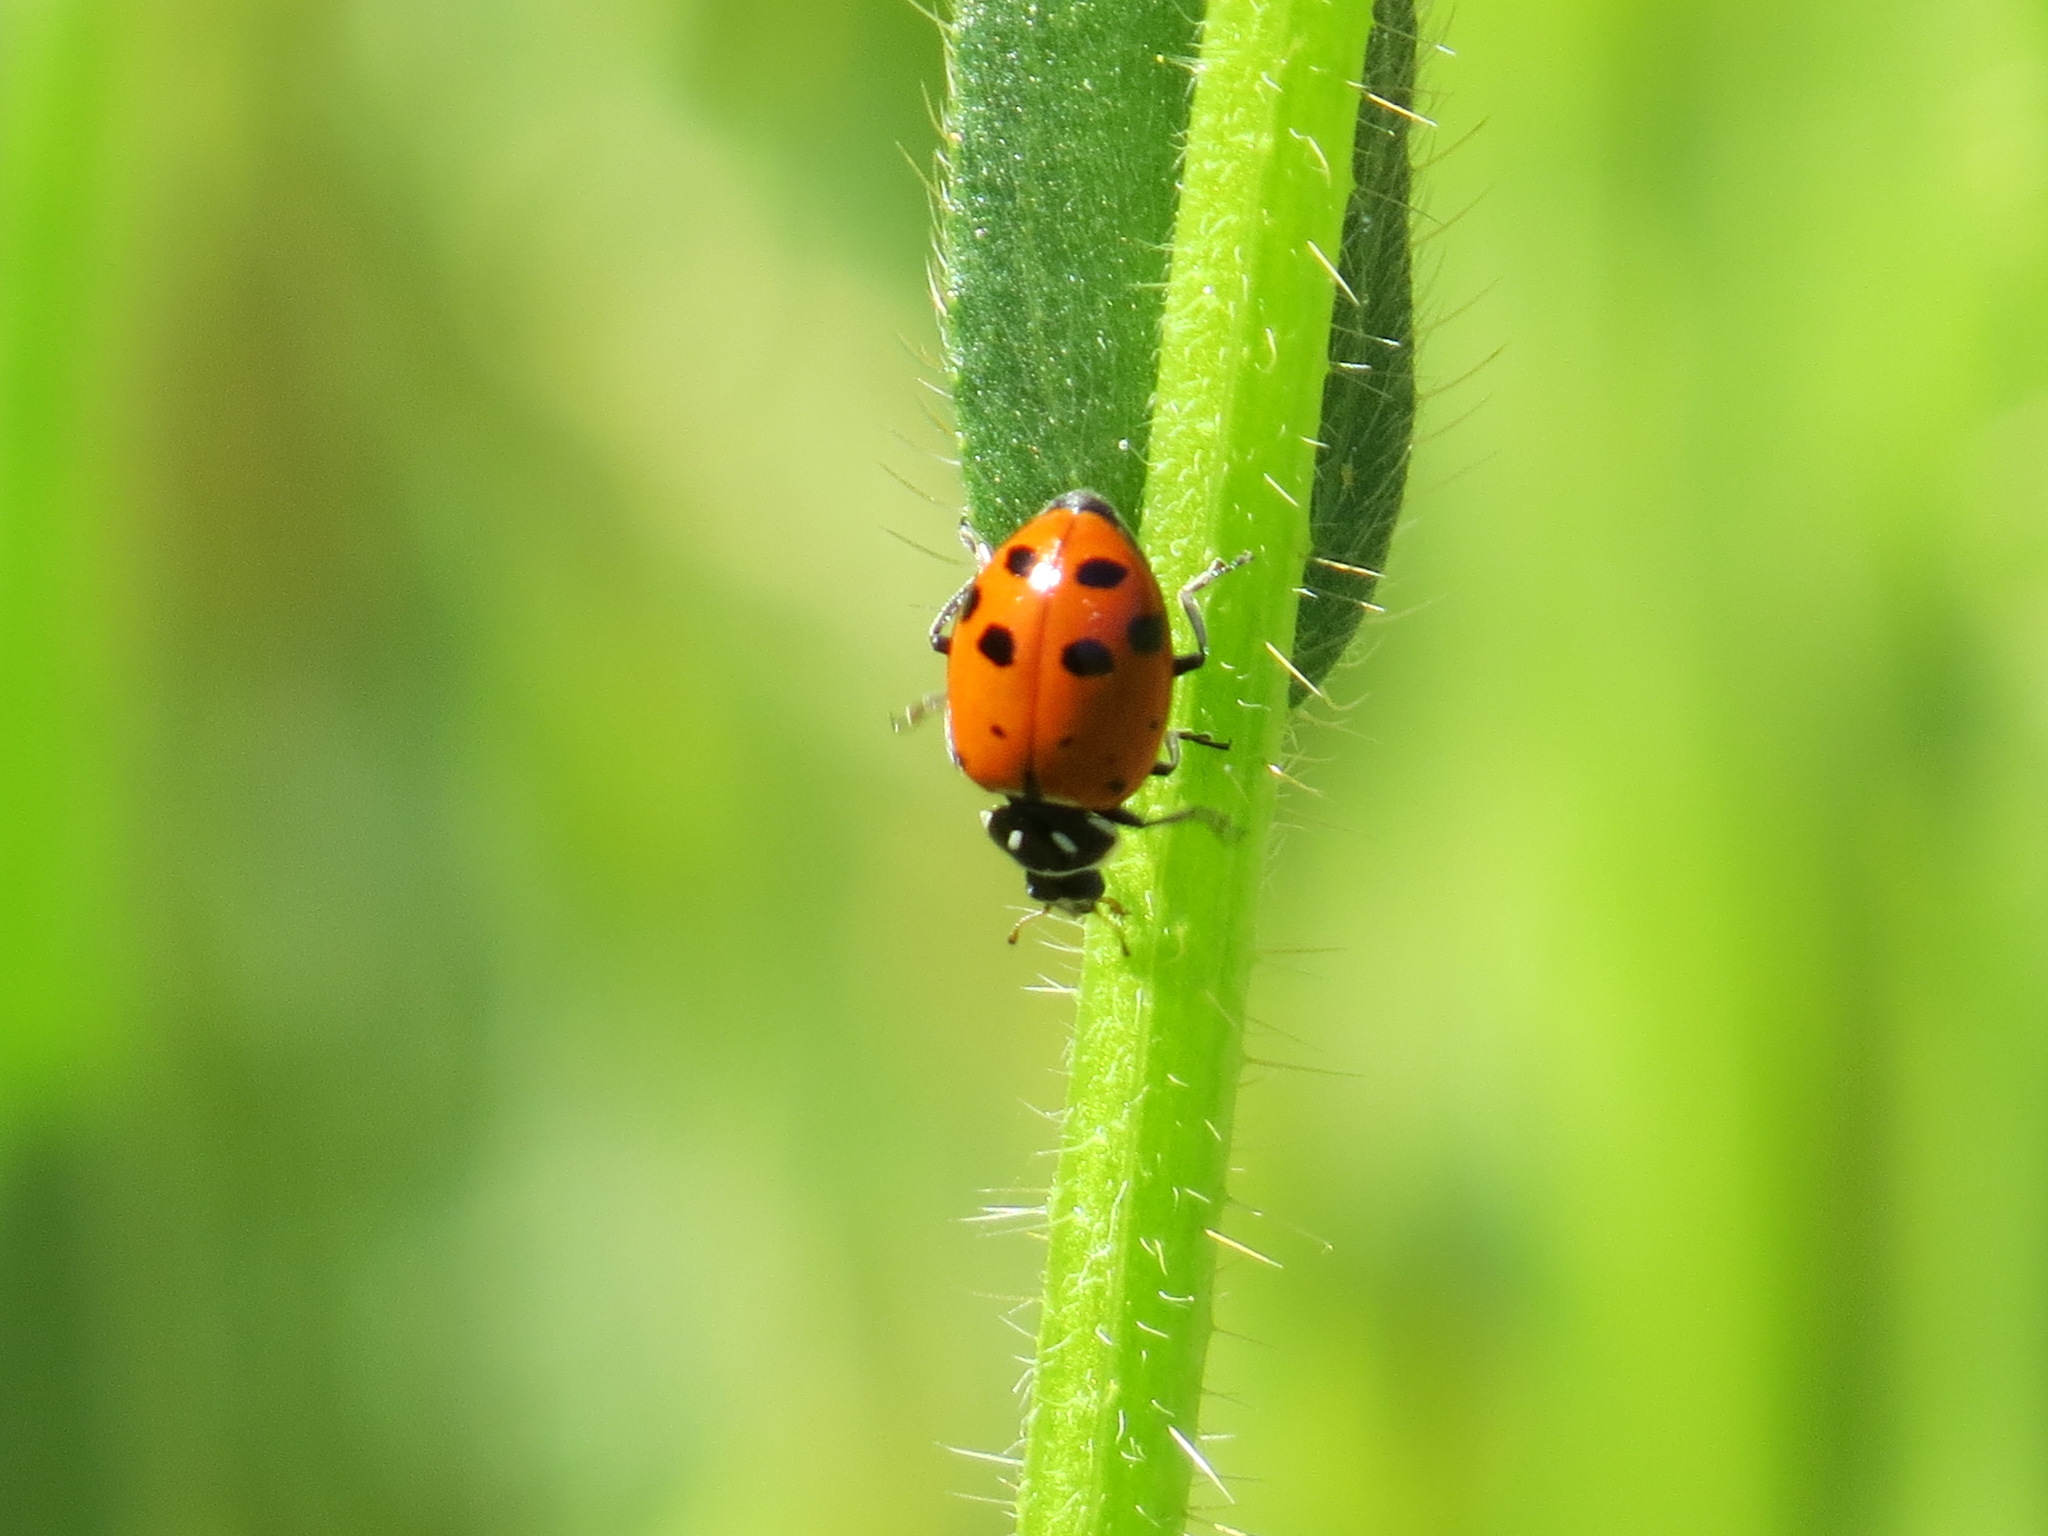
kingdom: Animalia
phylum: Arthropoda
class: Insecta
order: Coleoptera
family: Coccinellidae
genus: Hippodamia
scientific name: Hippodamia convergens
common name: Convergent lady beetle
